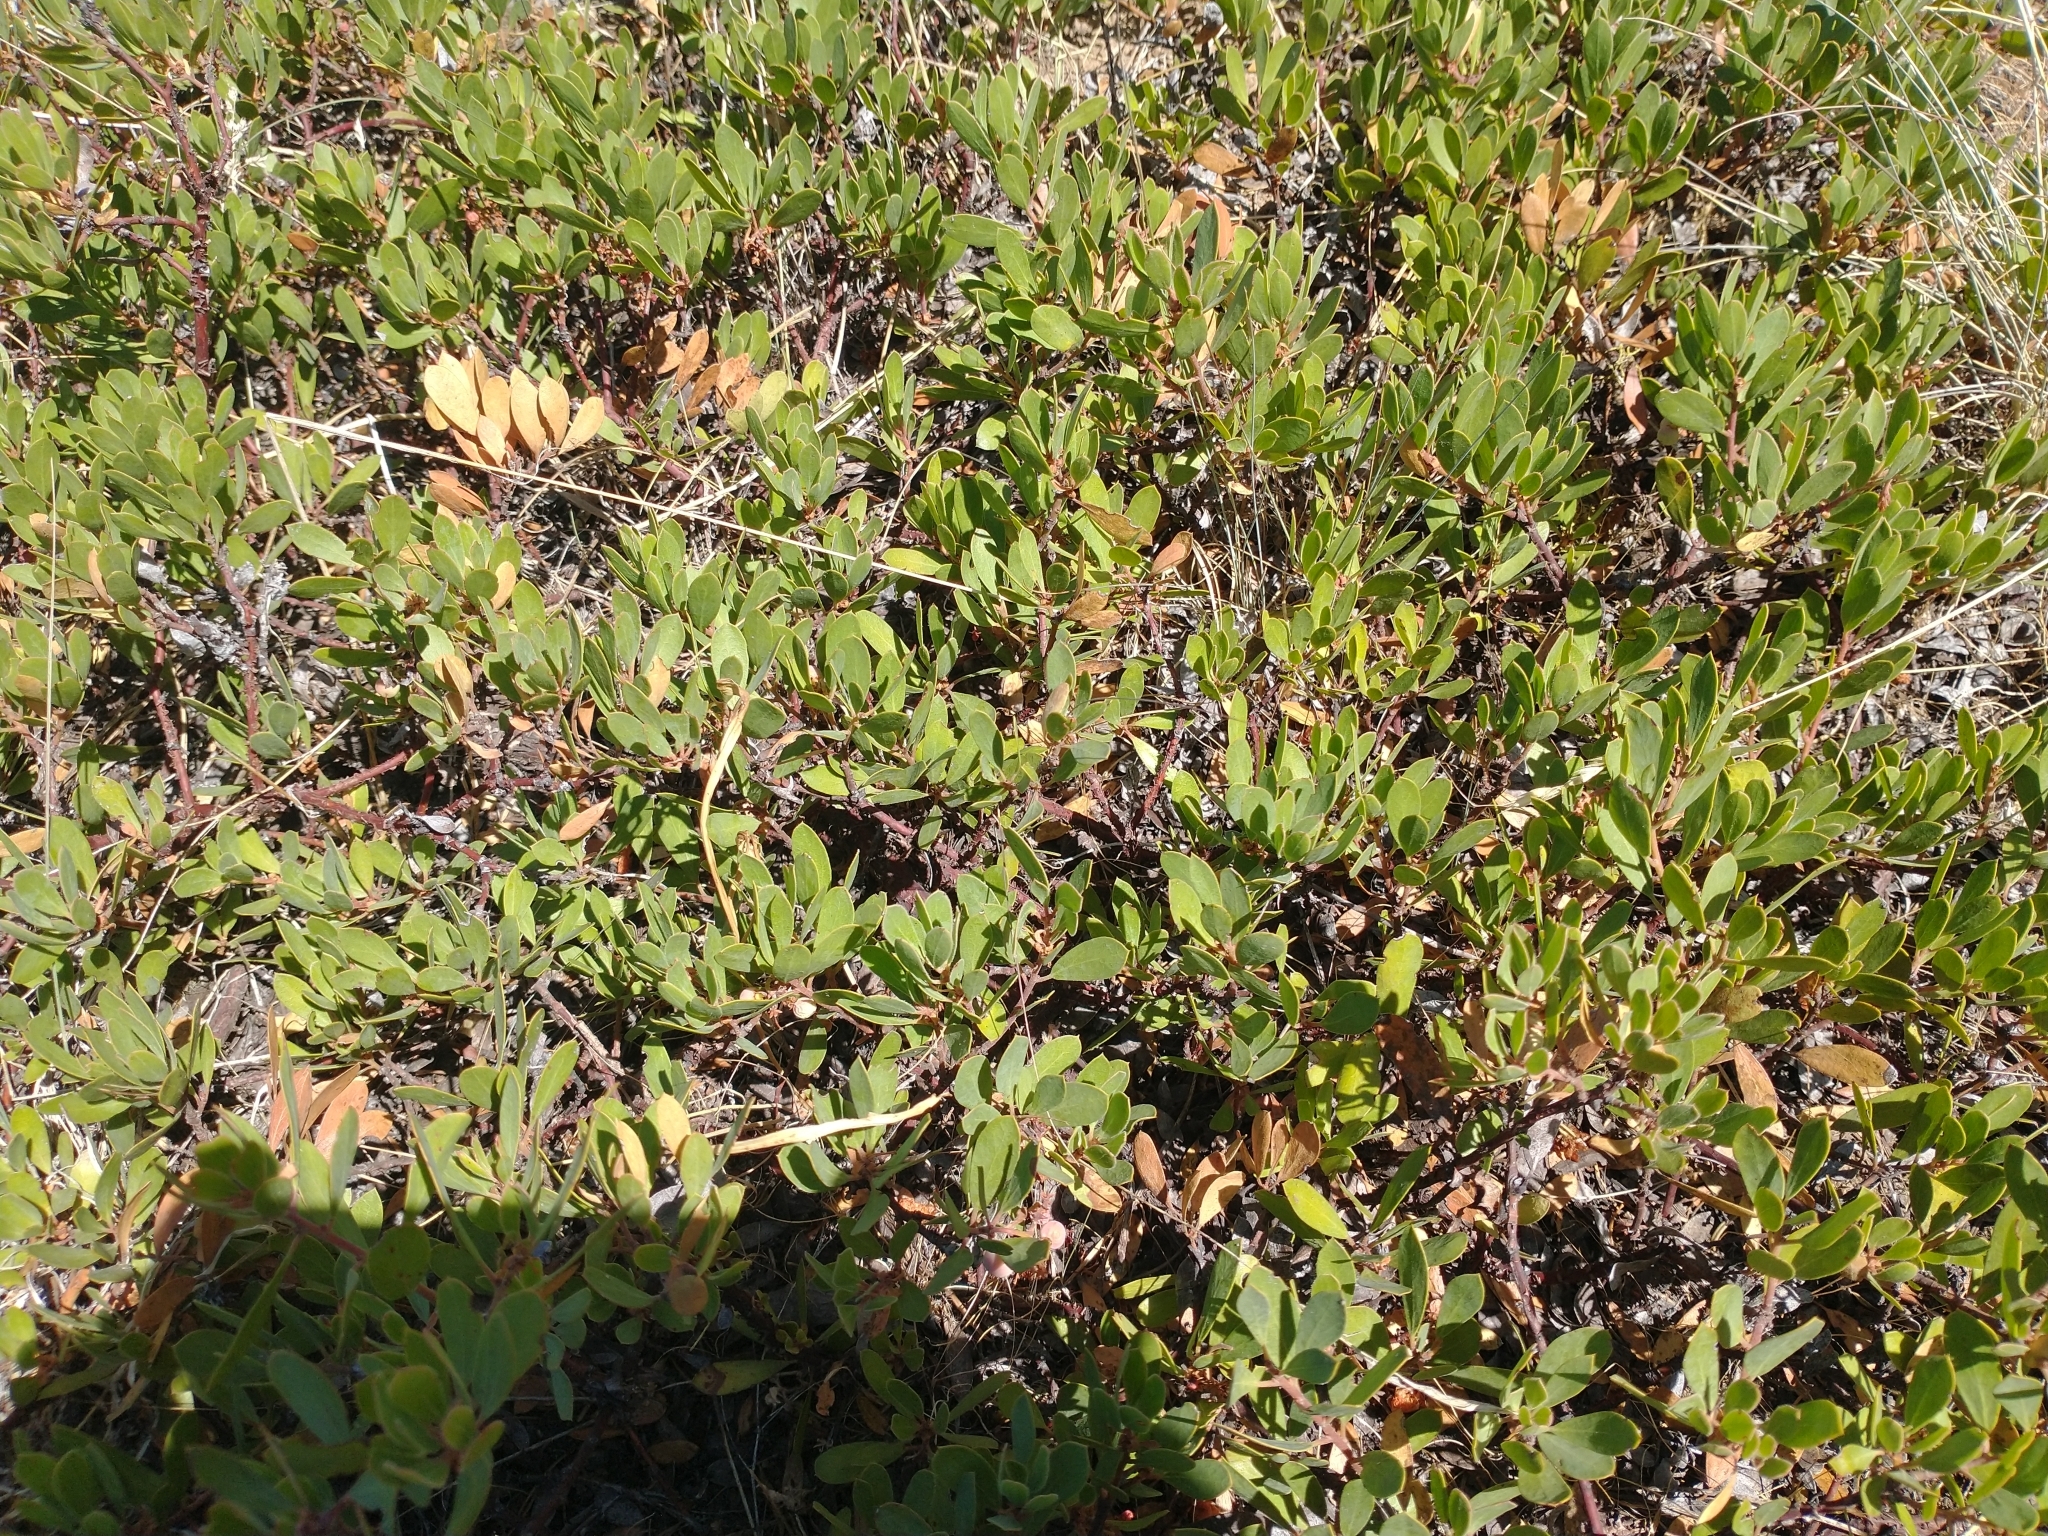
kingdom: Plantae
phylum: Tracheophyta
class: Magnoliopsida
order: Ericales
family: Ericaceae
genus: Arctostaphylos
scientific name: Arctostaphylos nevadensis
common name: Pinemat manzanita
